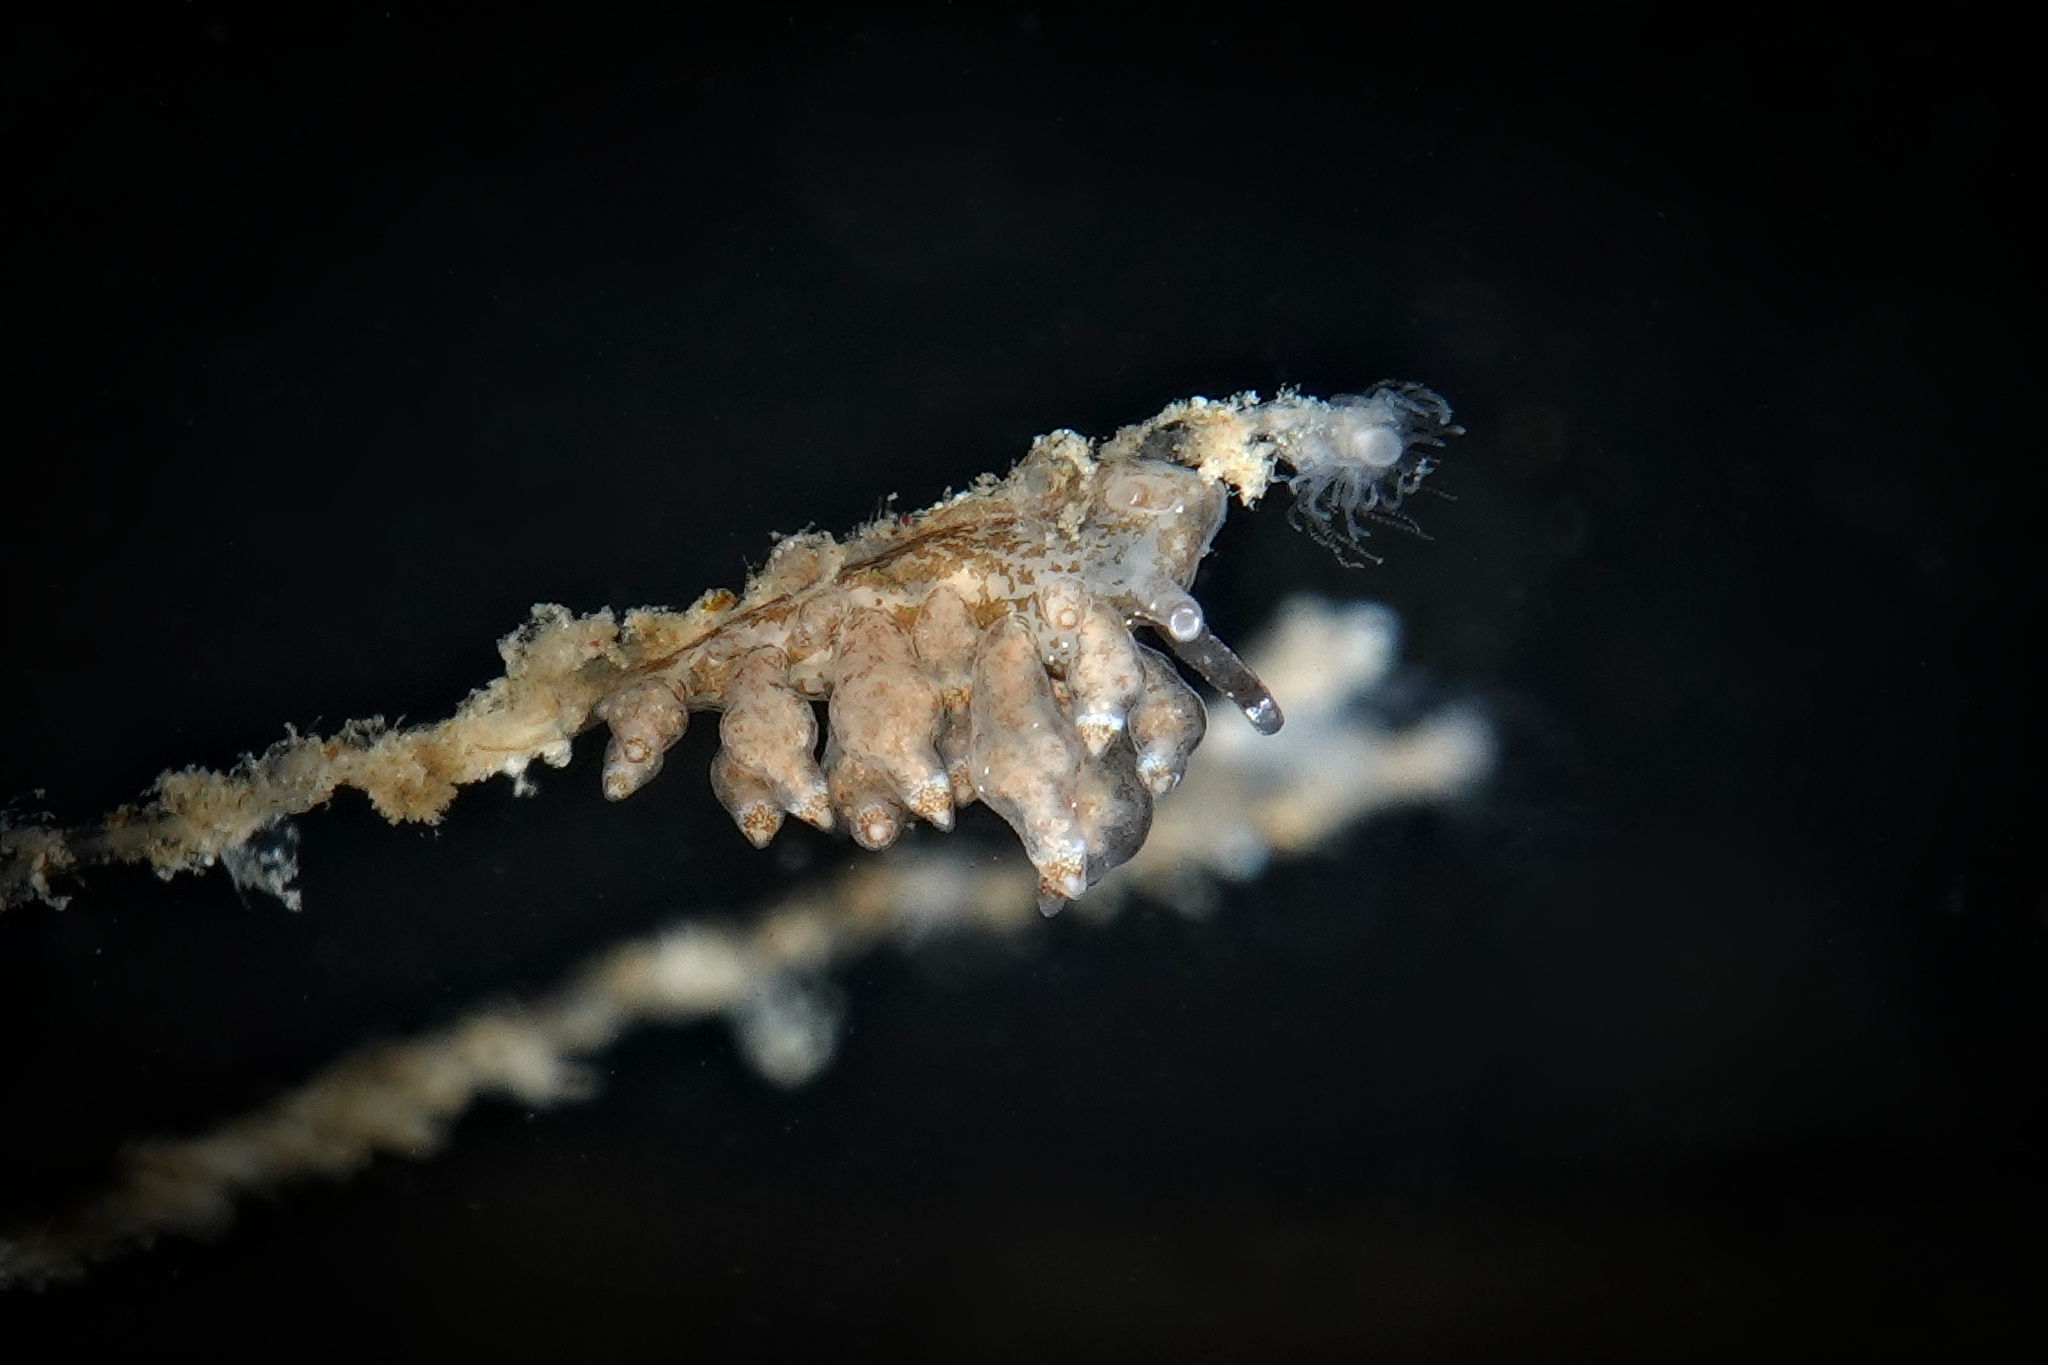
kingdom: Animalia
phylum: Mollusca
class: Gastropoda
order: Nudibranchia
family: Eubranchidae
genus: Eubranchus
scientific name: Eubranchus scintillans
